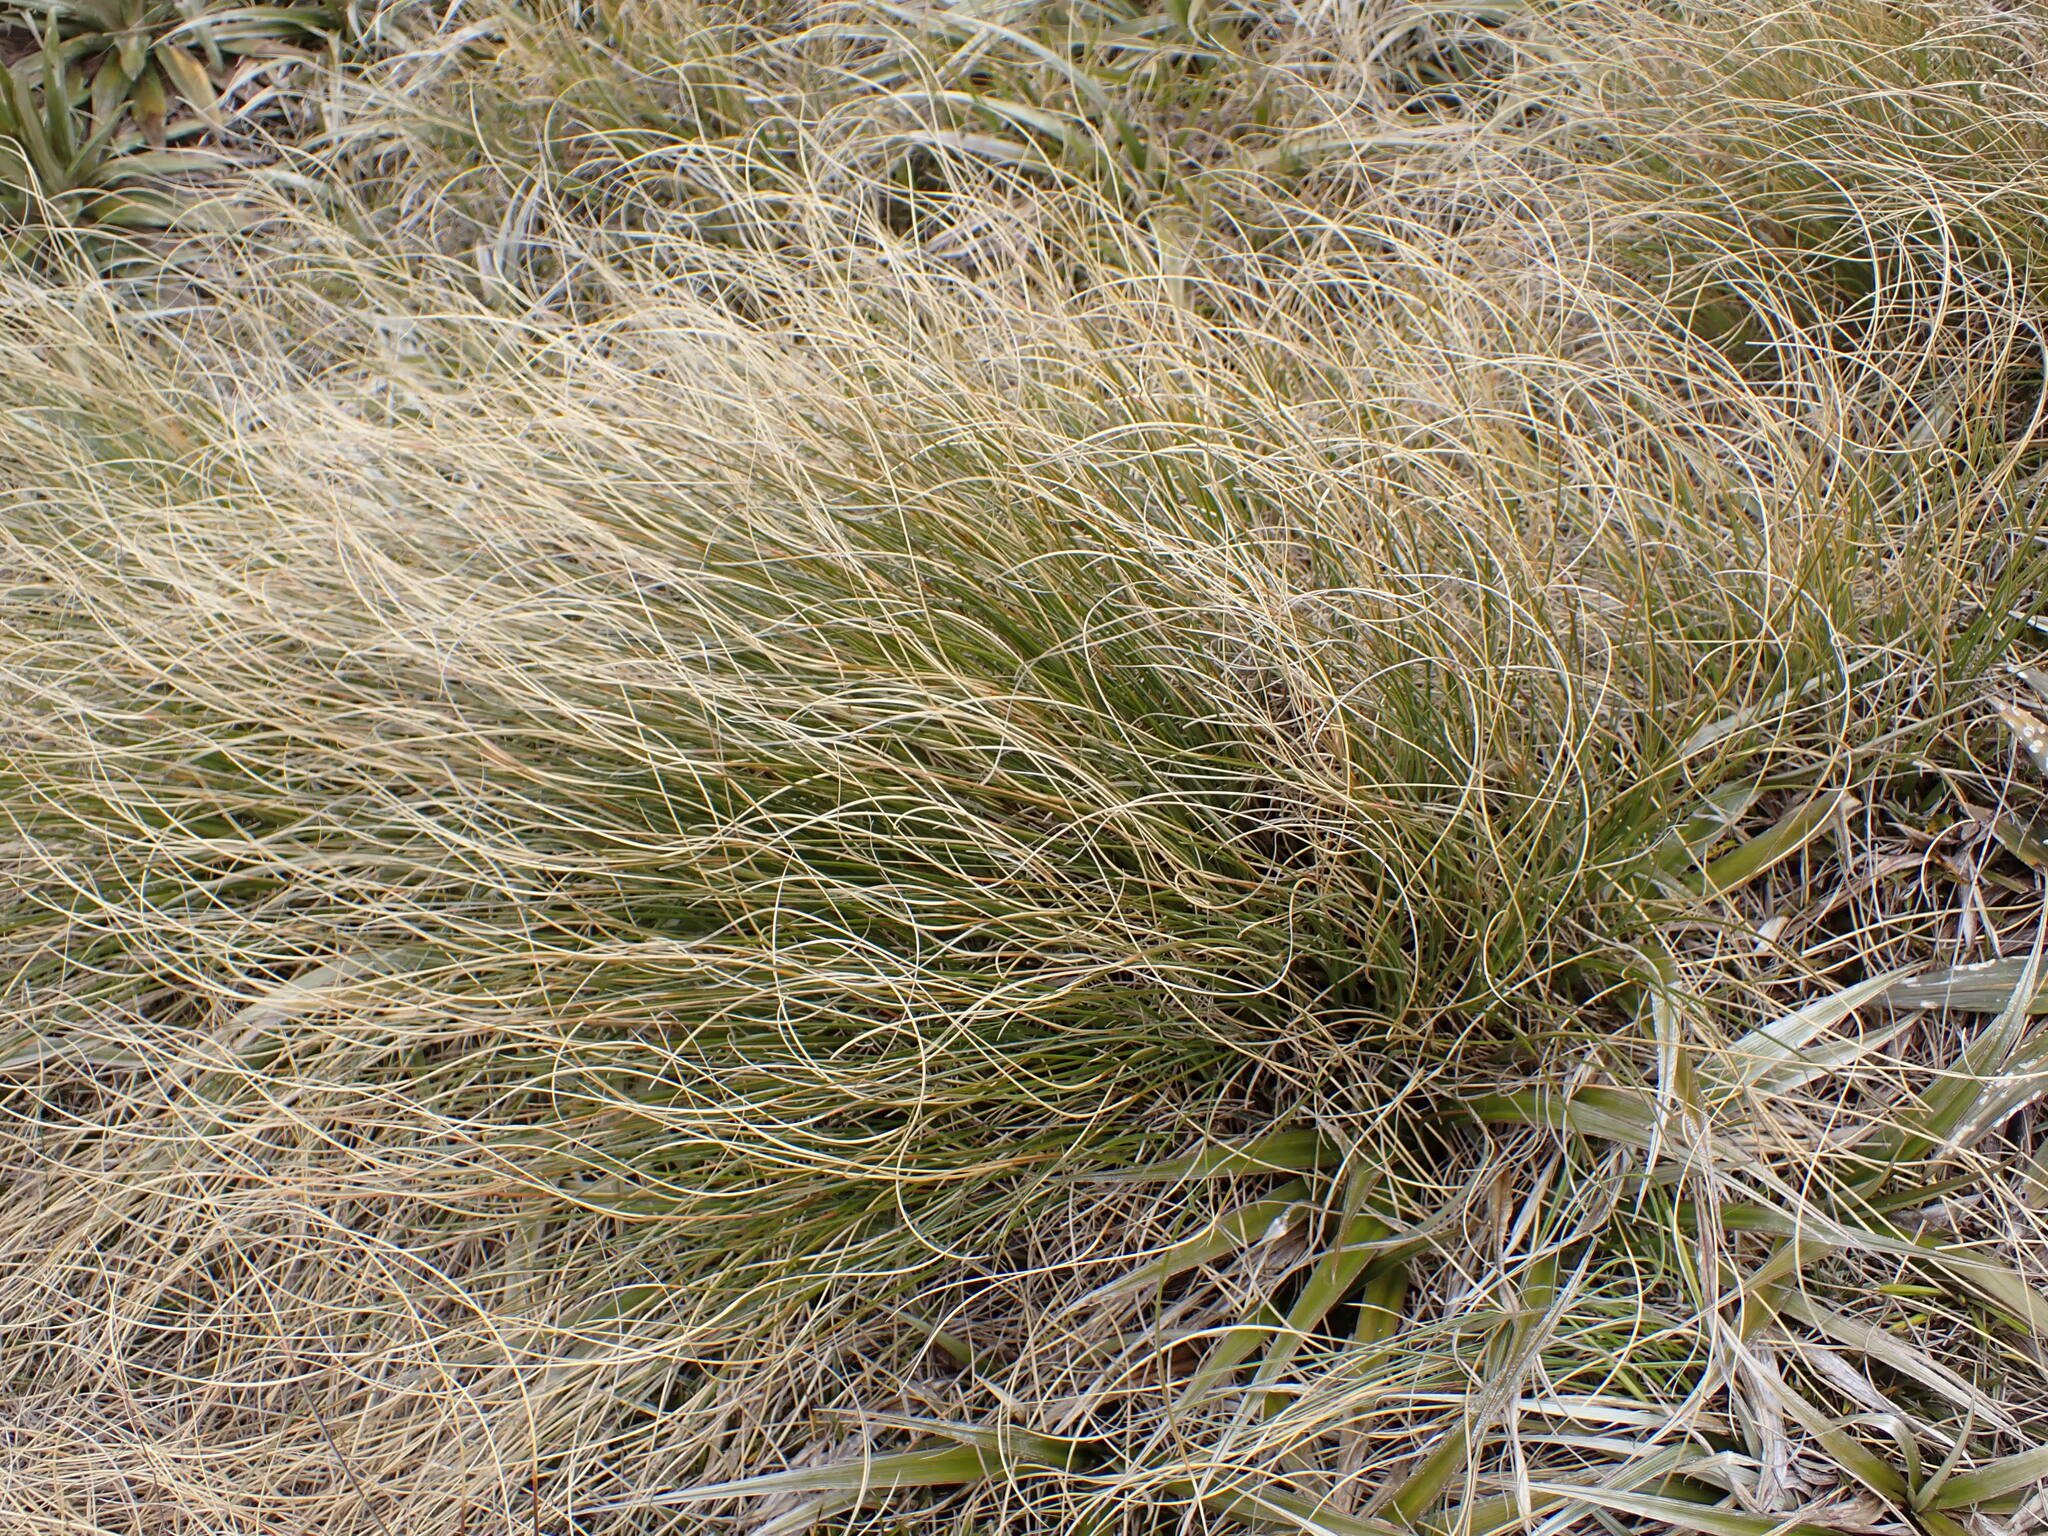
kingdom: Plantae
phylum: Tracheophyta
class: Liliopsida
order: Poales
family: Poaceae
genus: Chionochloa
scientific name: Chionochloa crassiuscula
